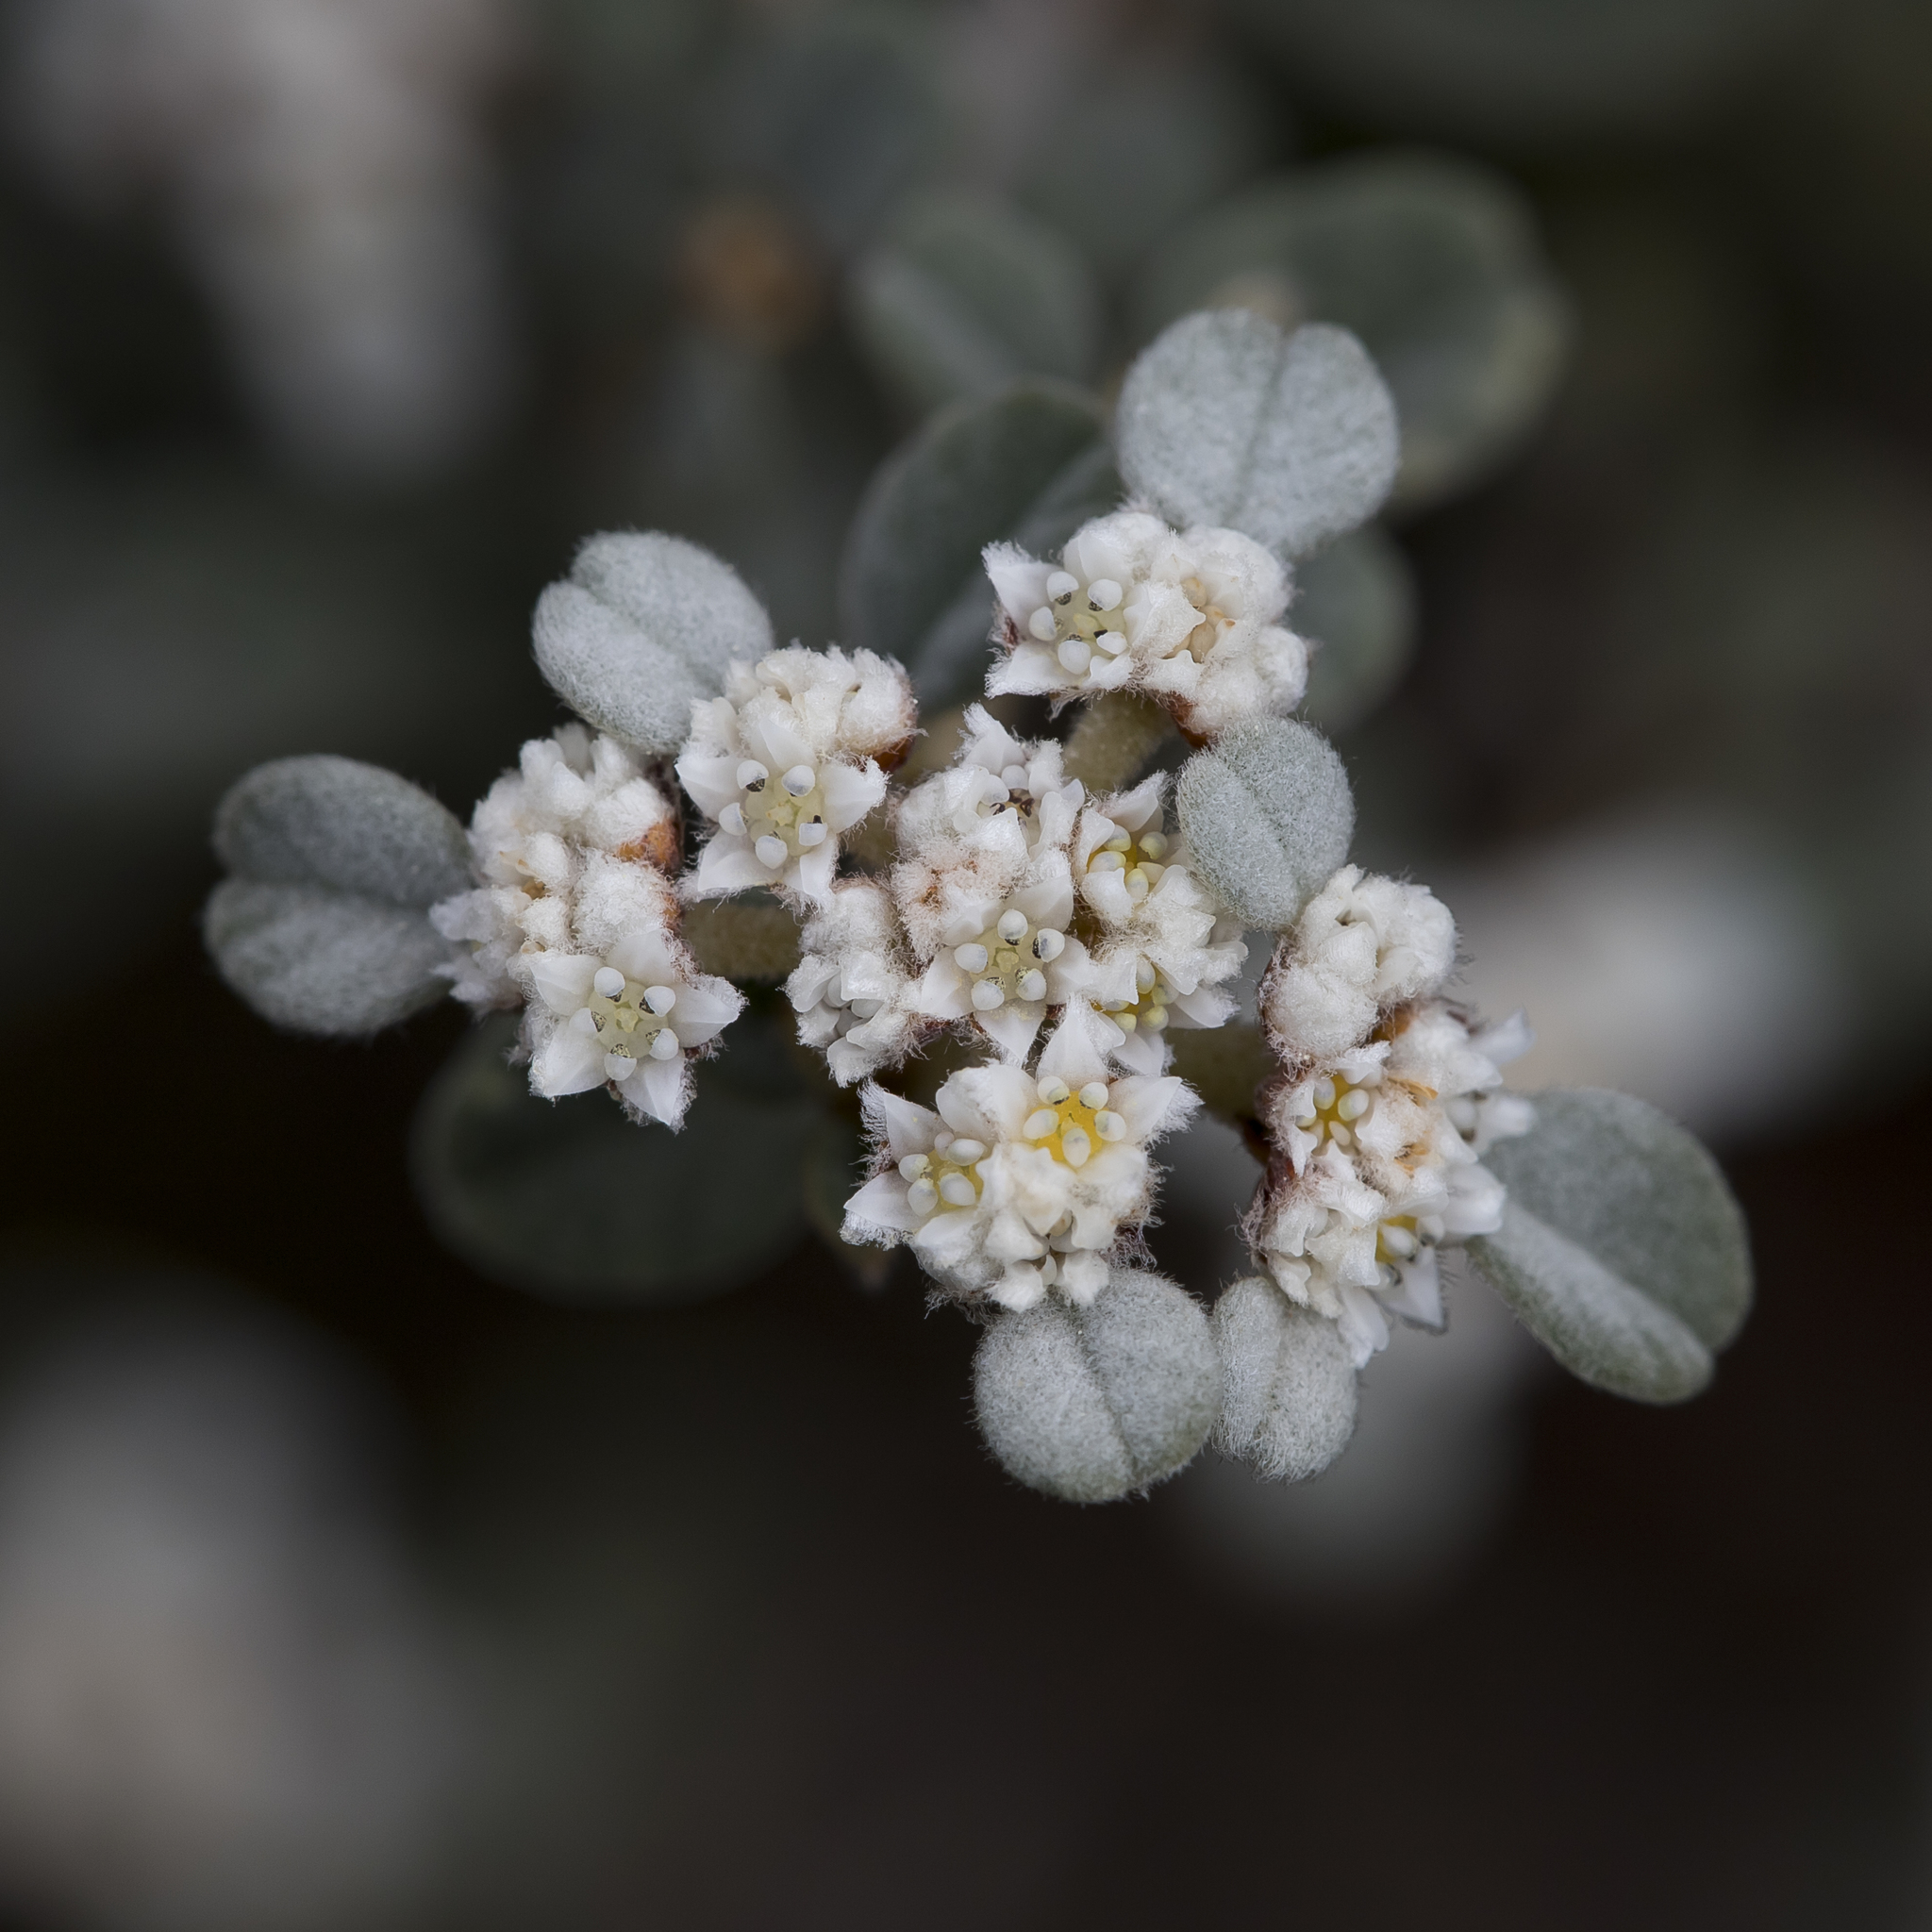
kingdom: Plantae
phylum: Tracheophyta
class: Magnoliopsida
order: Rosales
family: Rhamnaceae
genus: Spyridium
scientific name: Spyridium parvifolium
